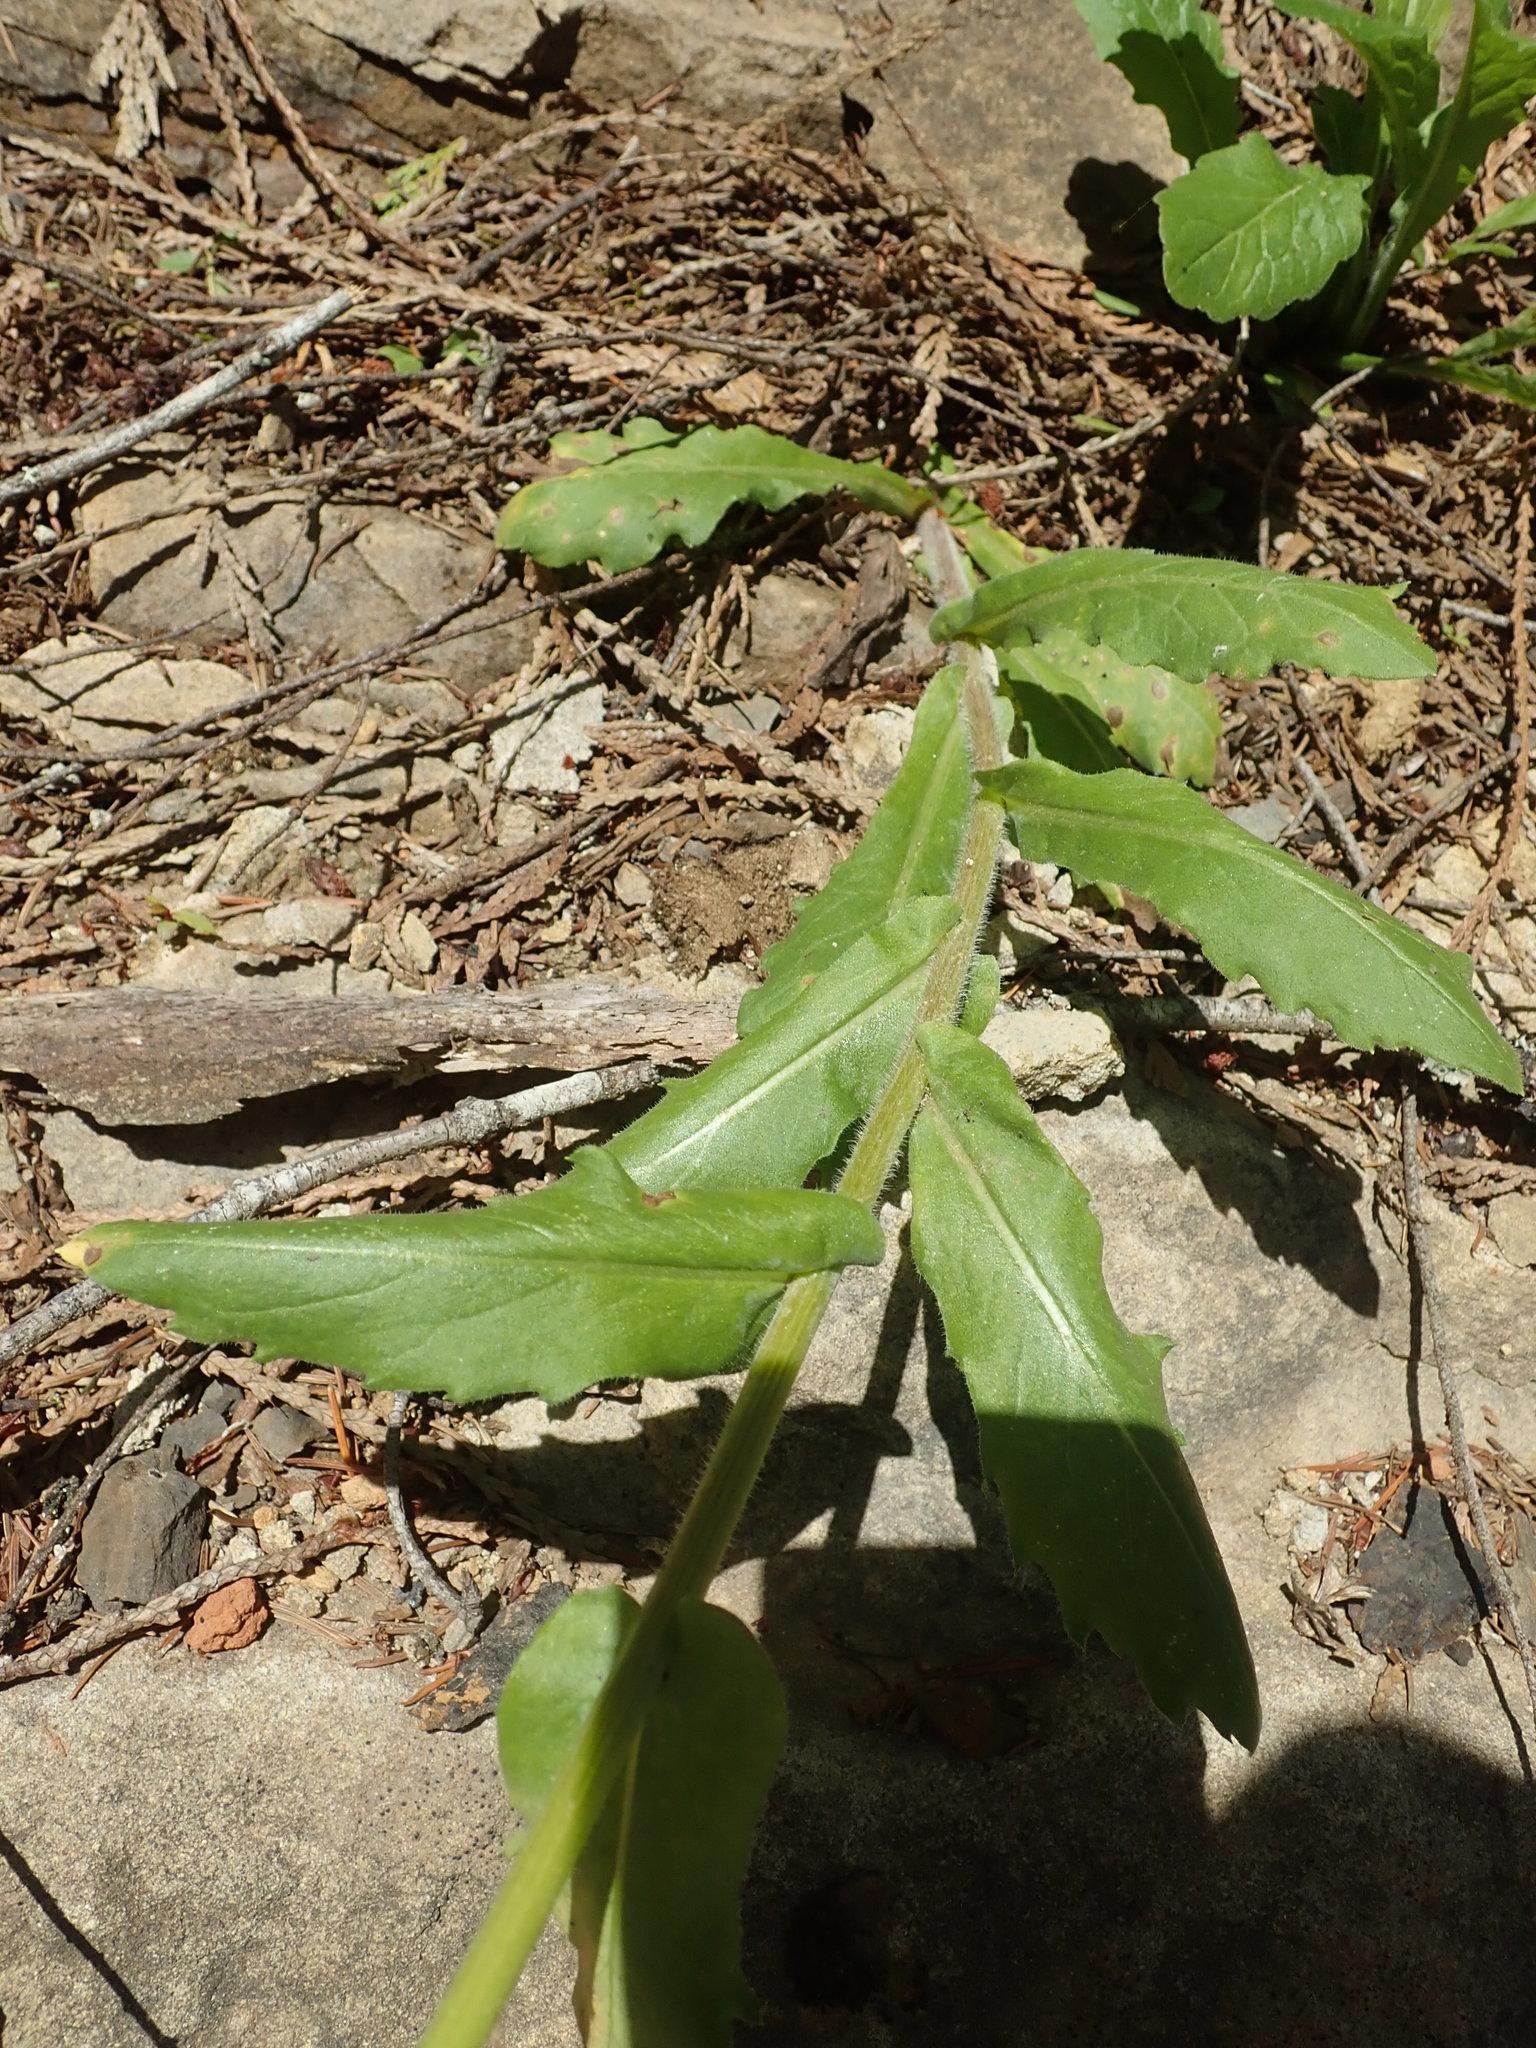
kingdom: Plantae
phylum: Tracheophyta
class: Magnoliopsida
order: Asterales
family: Asteraceae
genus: Erigeron
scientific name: Erigeron philadelphicus
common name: Robin's-plantain
